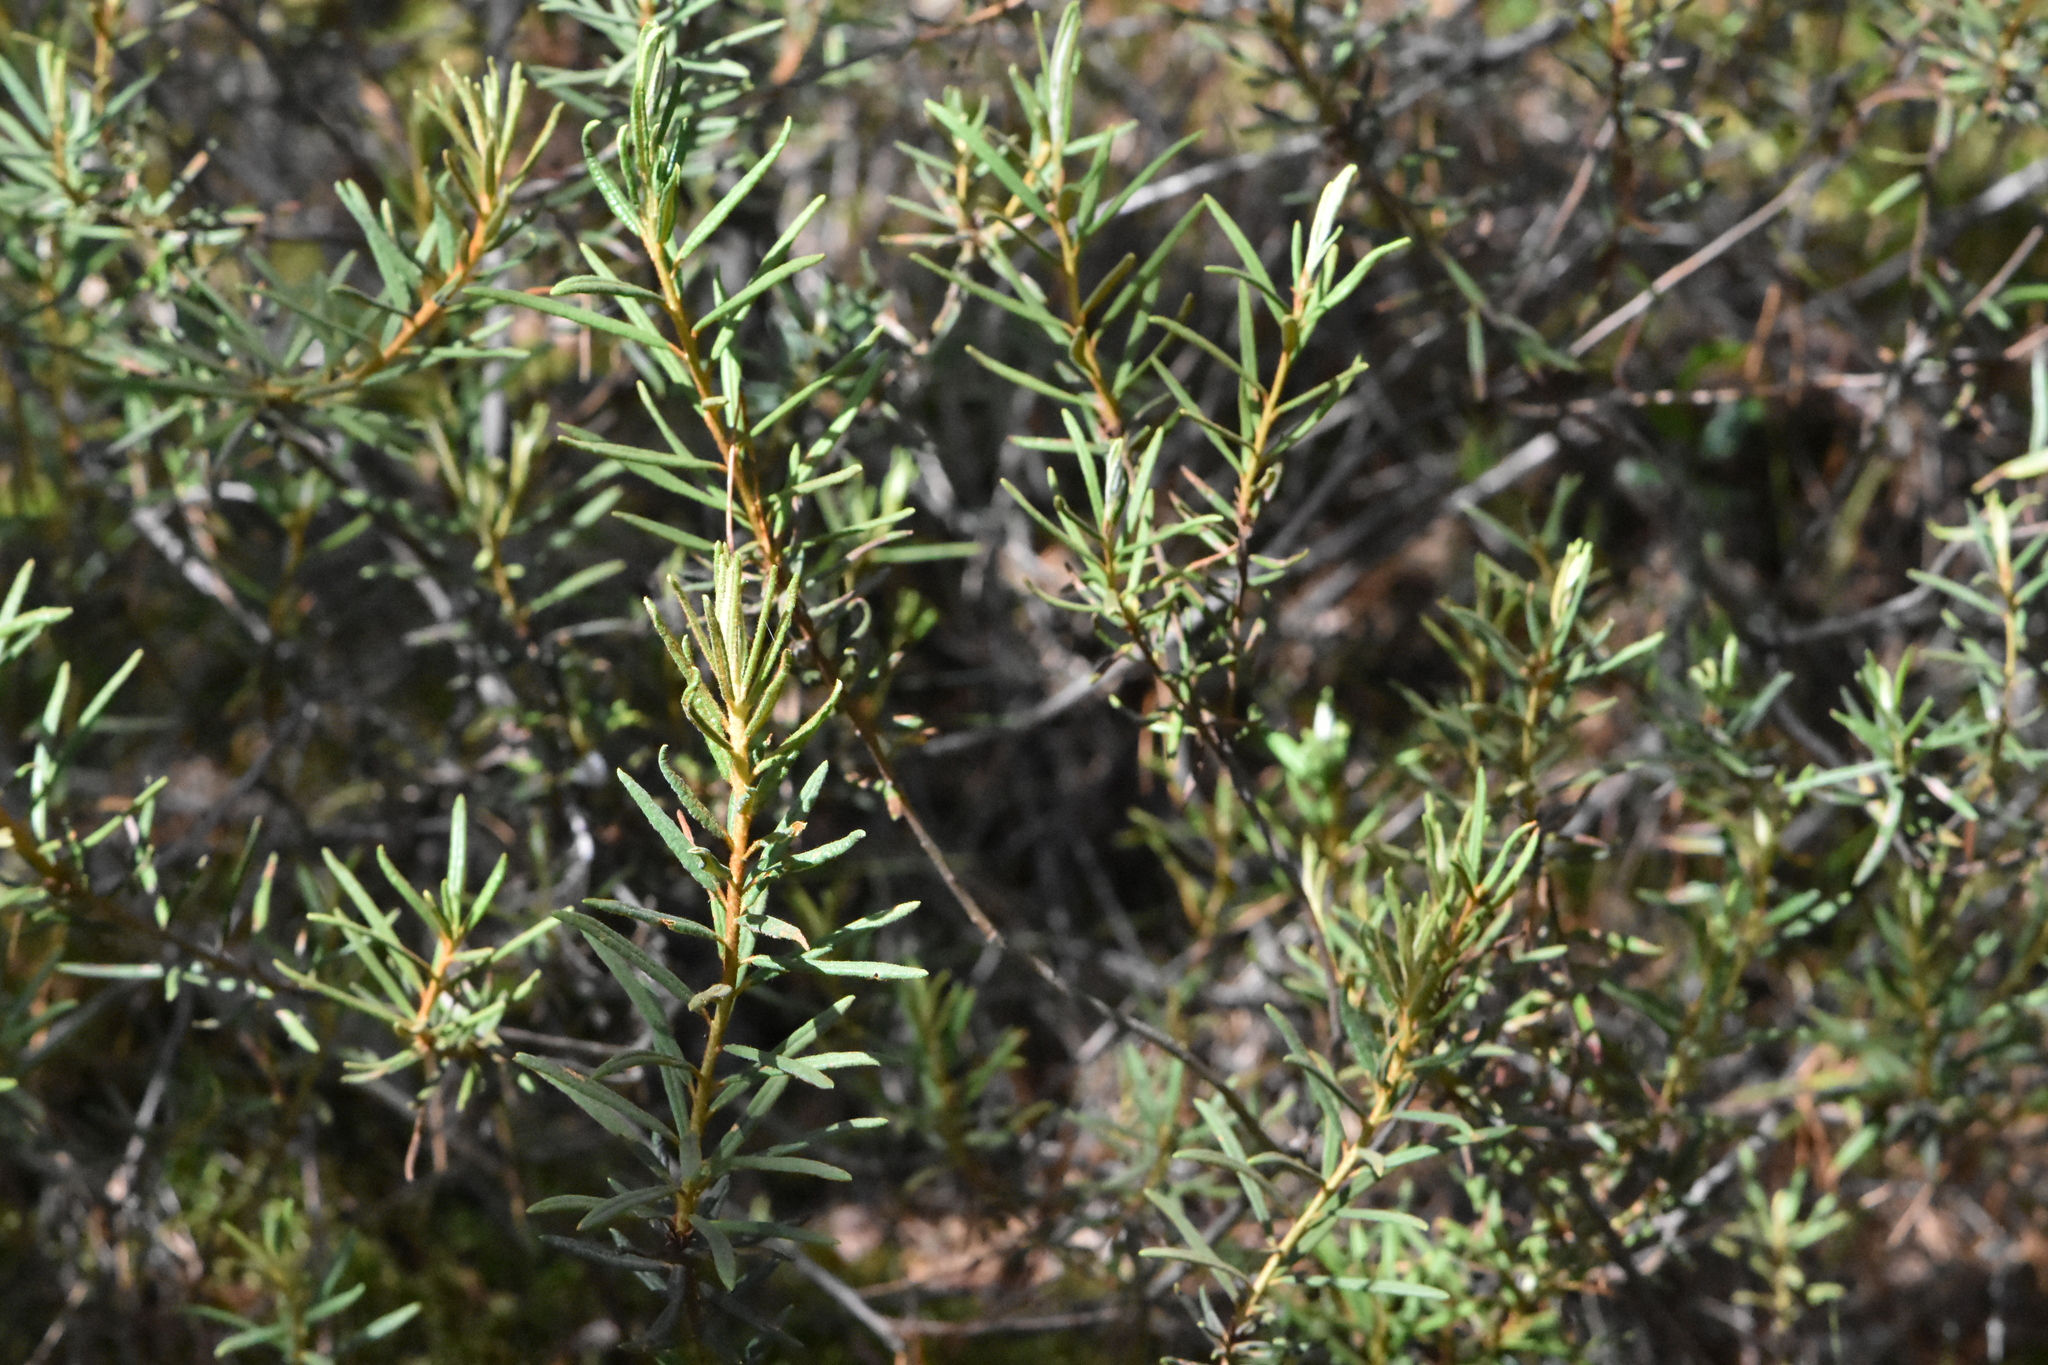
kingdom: Plantae
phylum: Tracheophyta
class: Magnoliopsida
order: Ericales
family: Ericaceae
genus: Rhododendron
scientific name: Rhododendron tomentosum
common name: Marsh labrador tea
